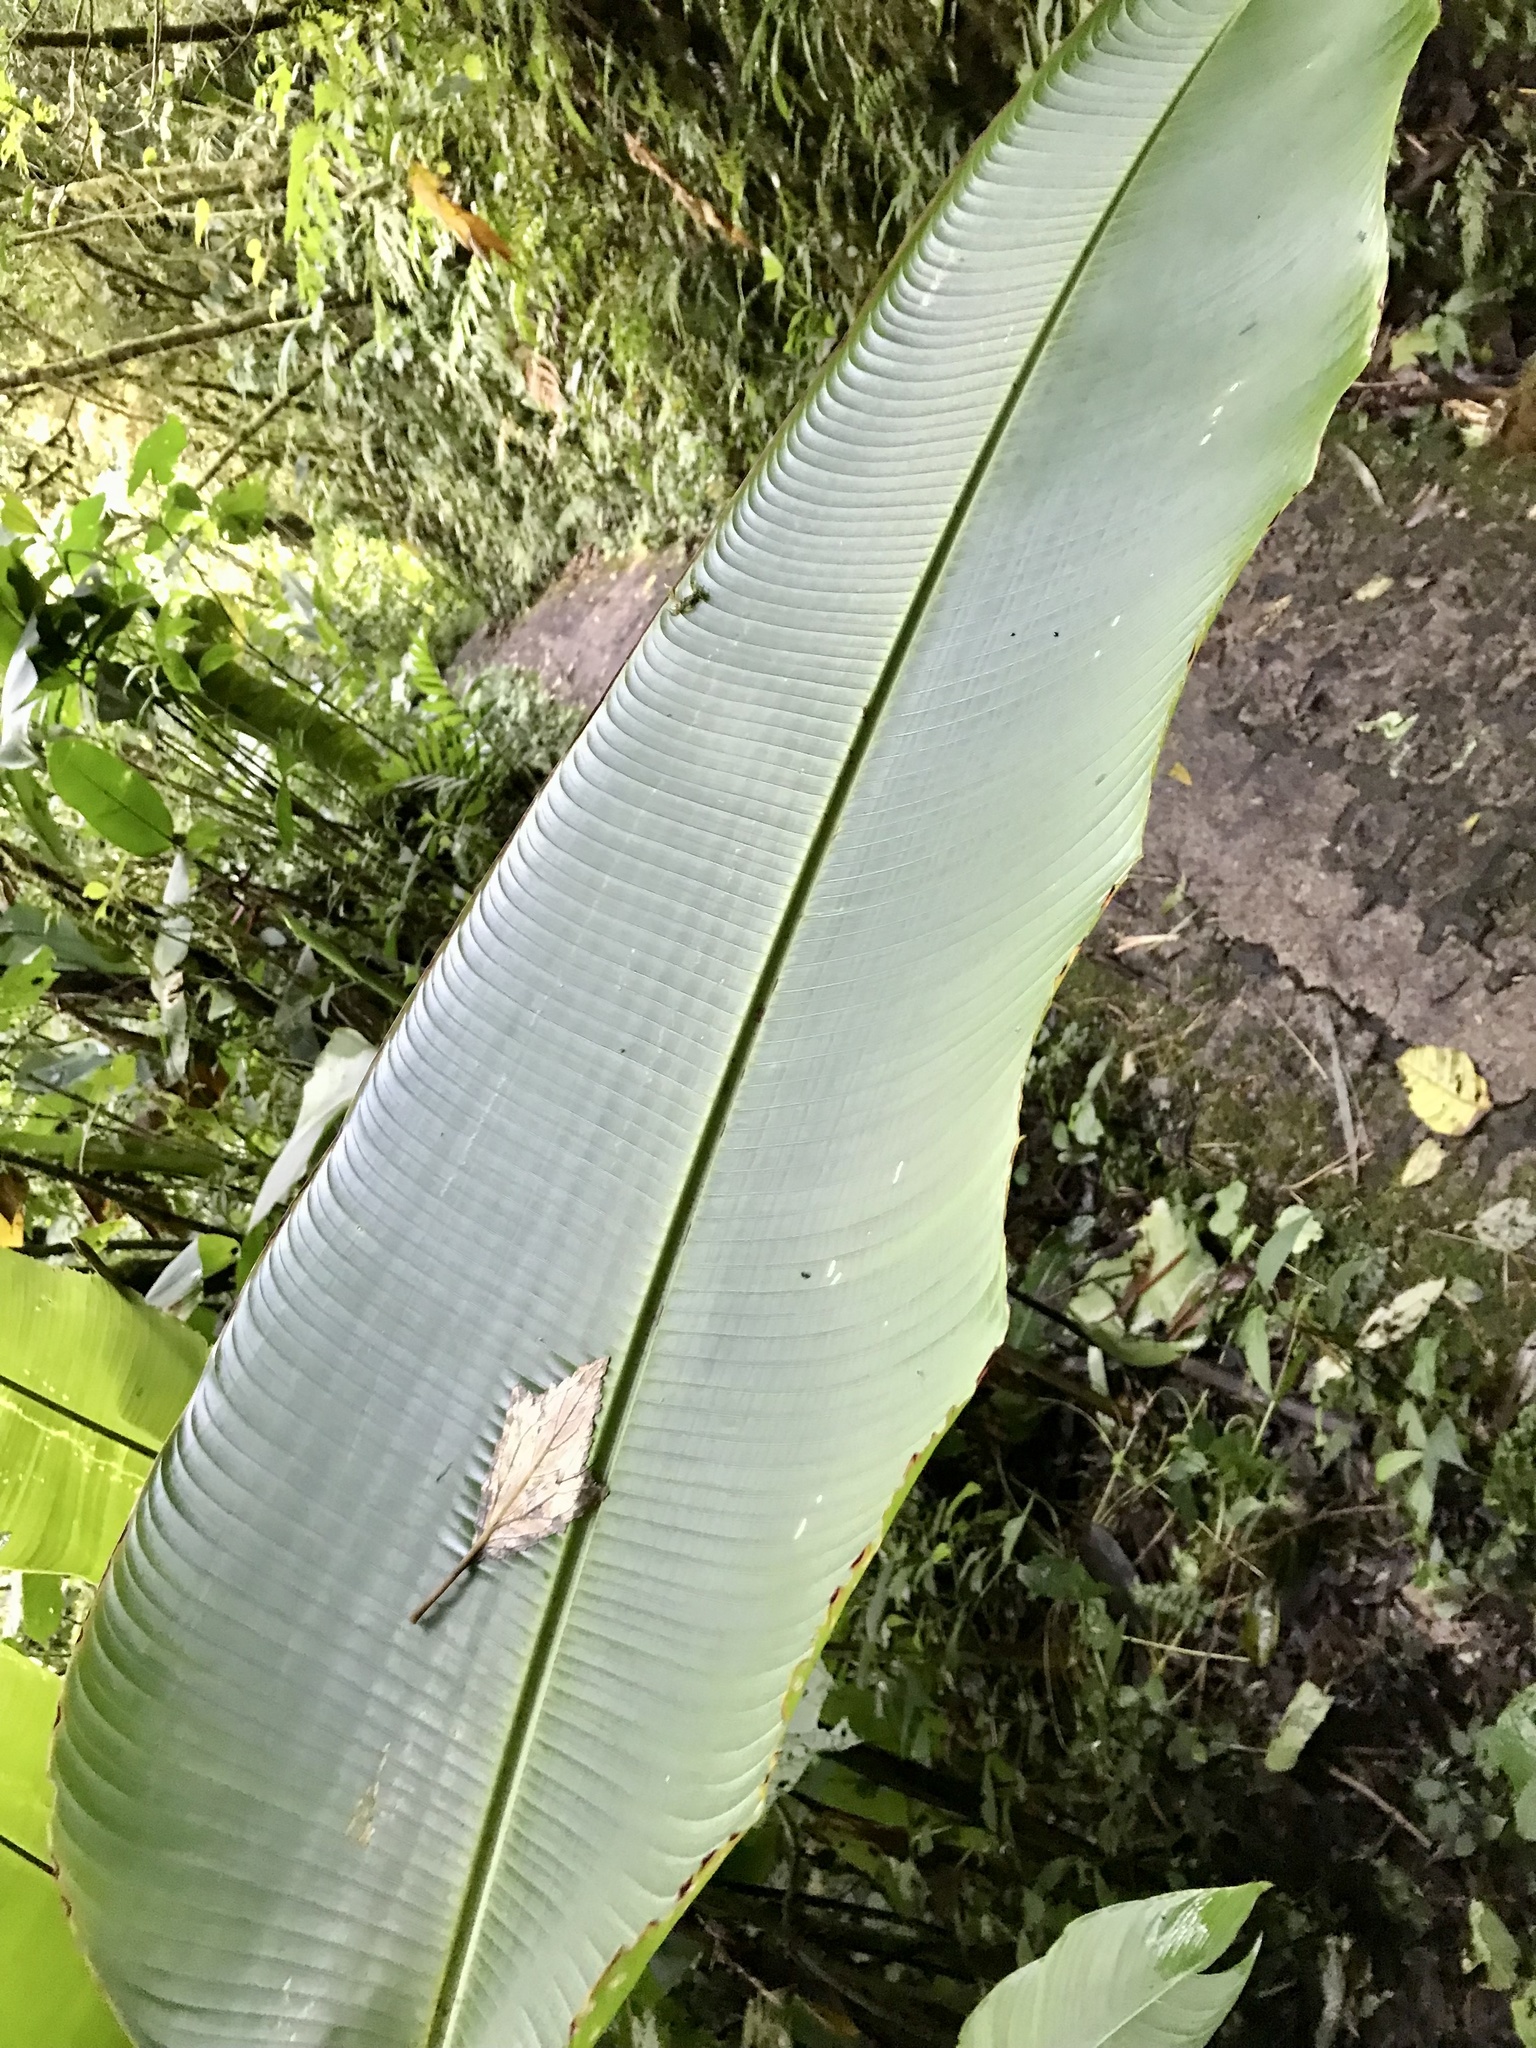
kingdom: Plantae
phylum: Tracheophyta
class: Liliopsida
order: Zingiberales
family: Heliconiaceae
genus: Heliconia
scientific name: Heliconia monteverdensis
